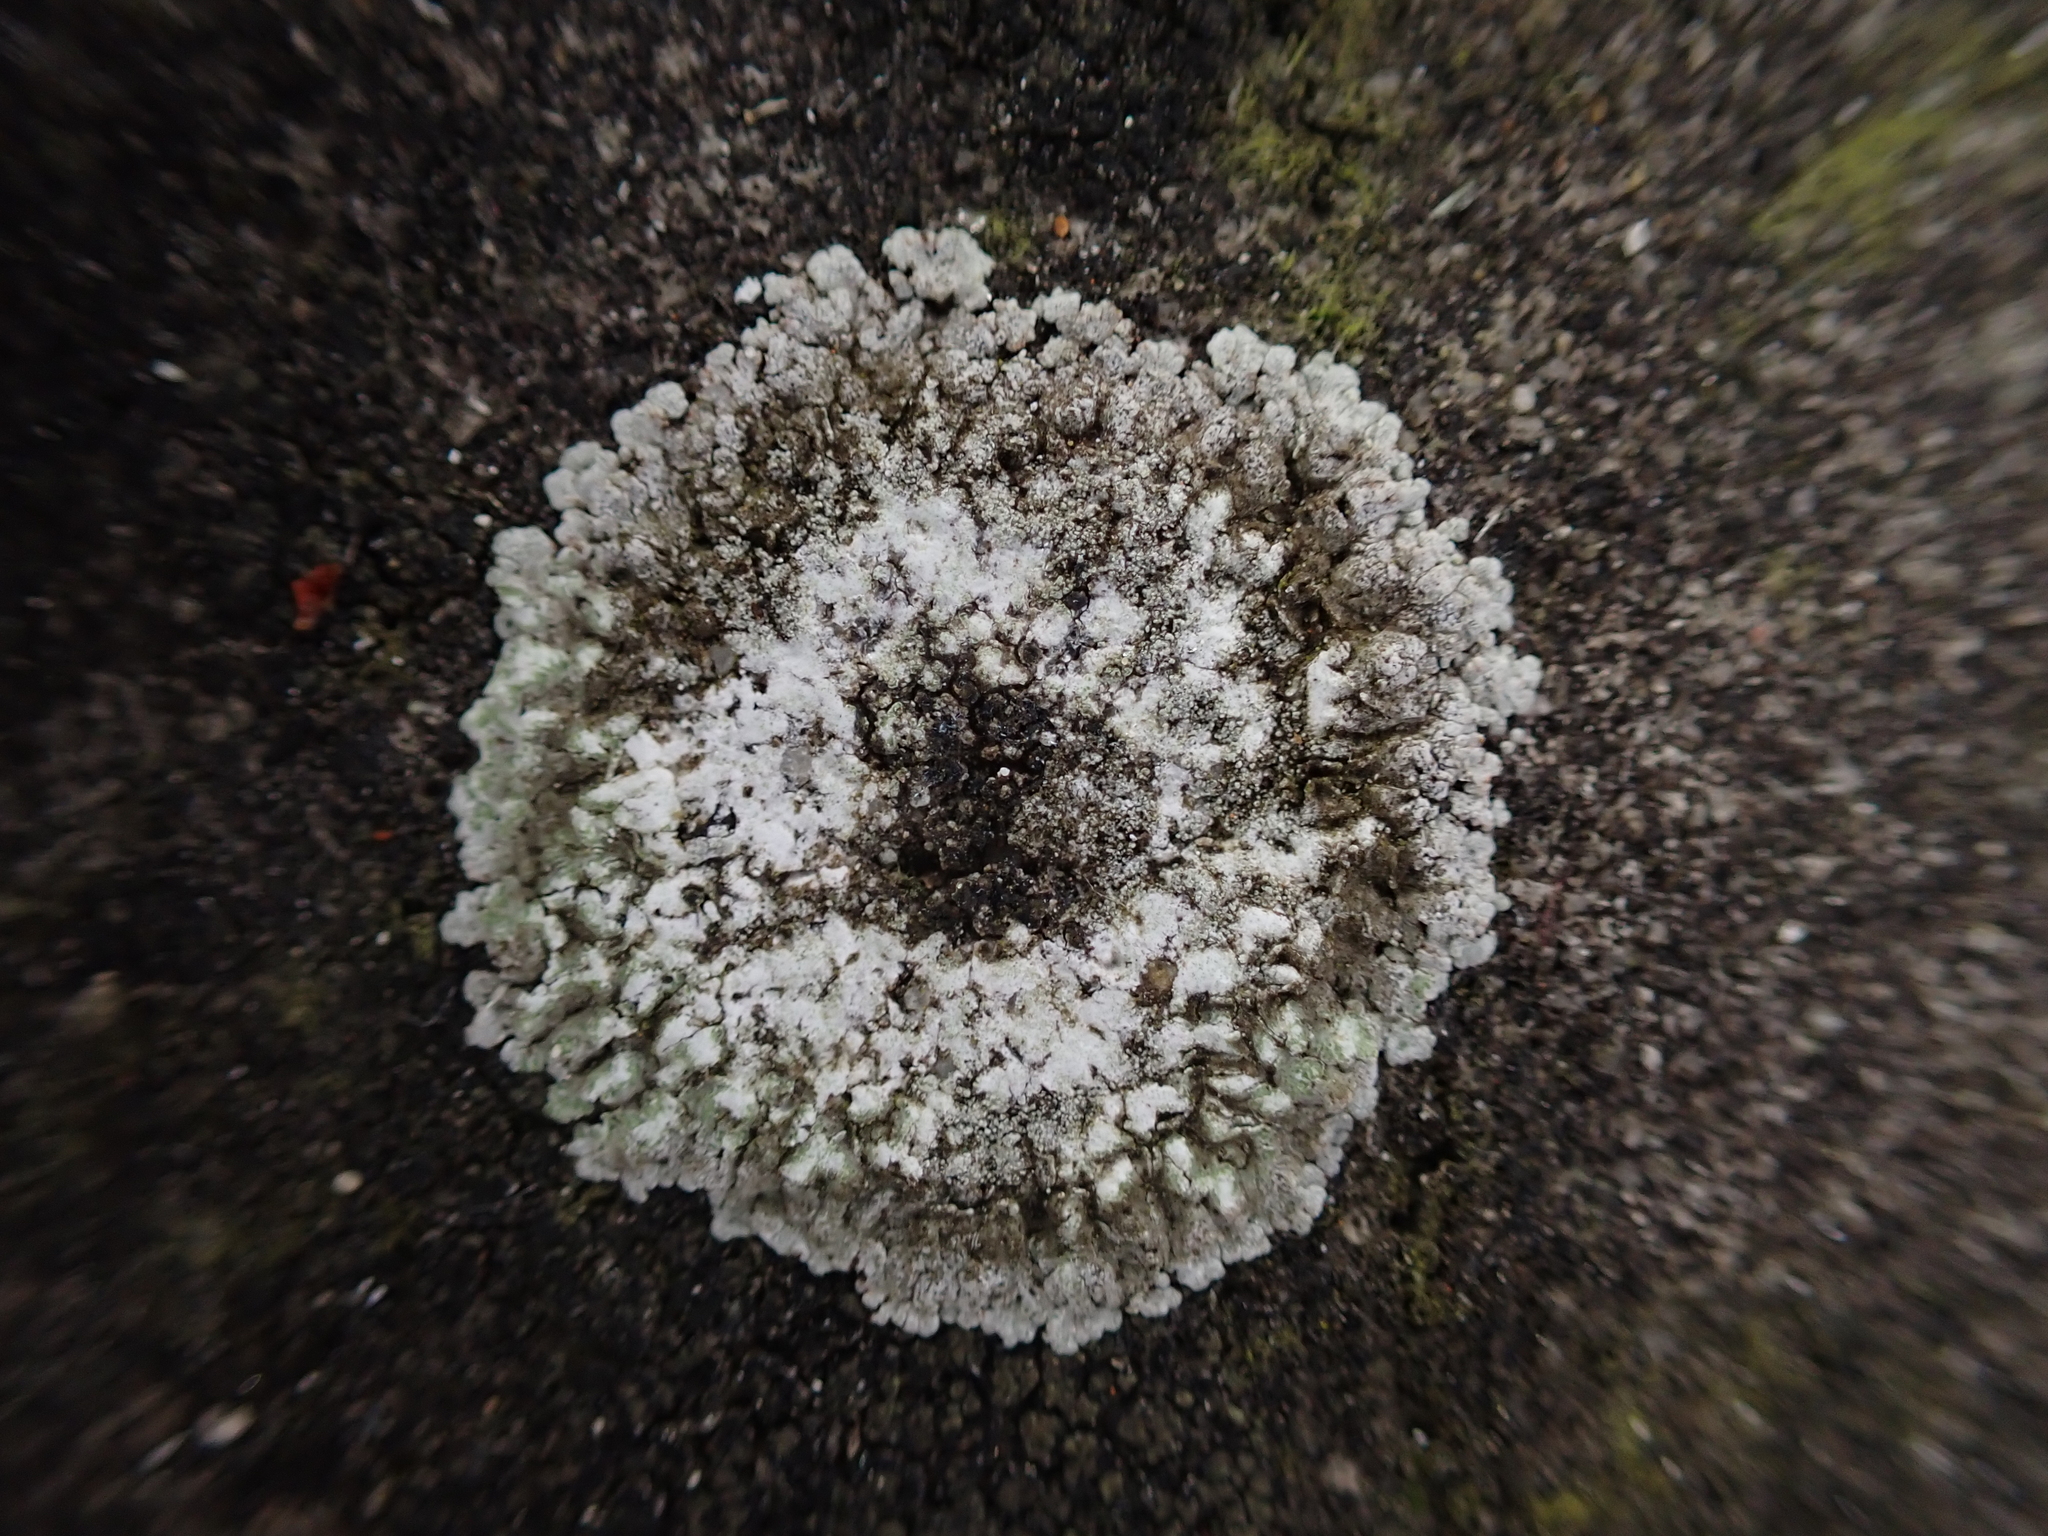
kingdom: Fungi
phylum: Ascomycota
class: Lecanoromycetes
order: Teloschistales
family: Teloschistaceae
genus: Kuettlingeria
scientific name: Kuettlingeria teicholyta
